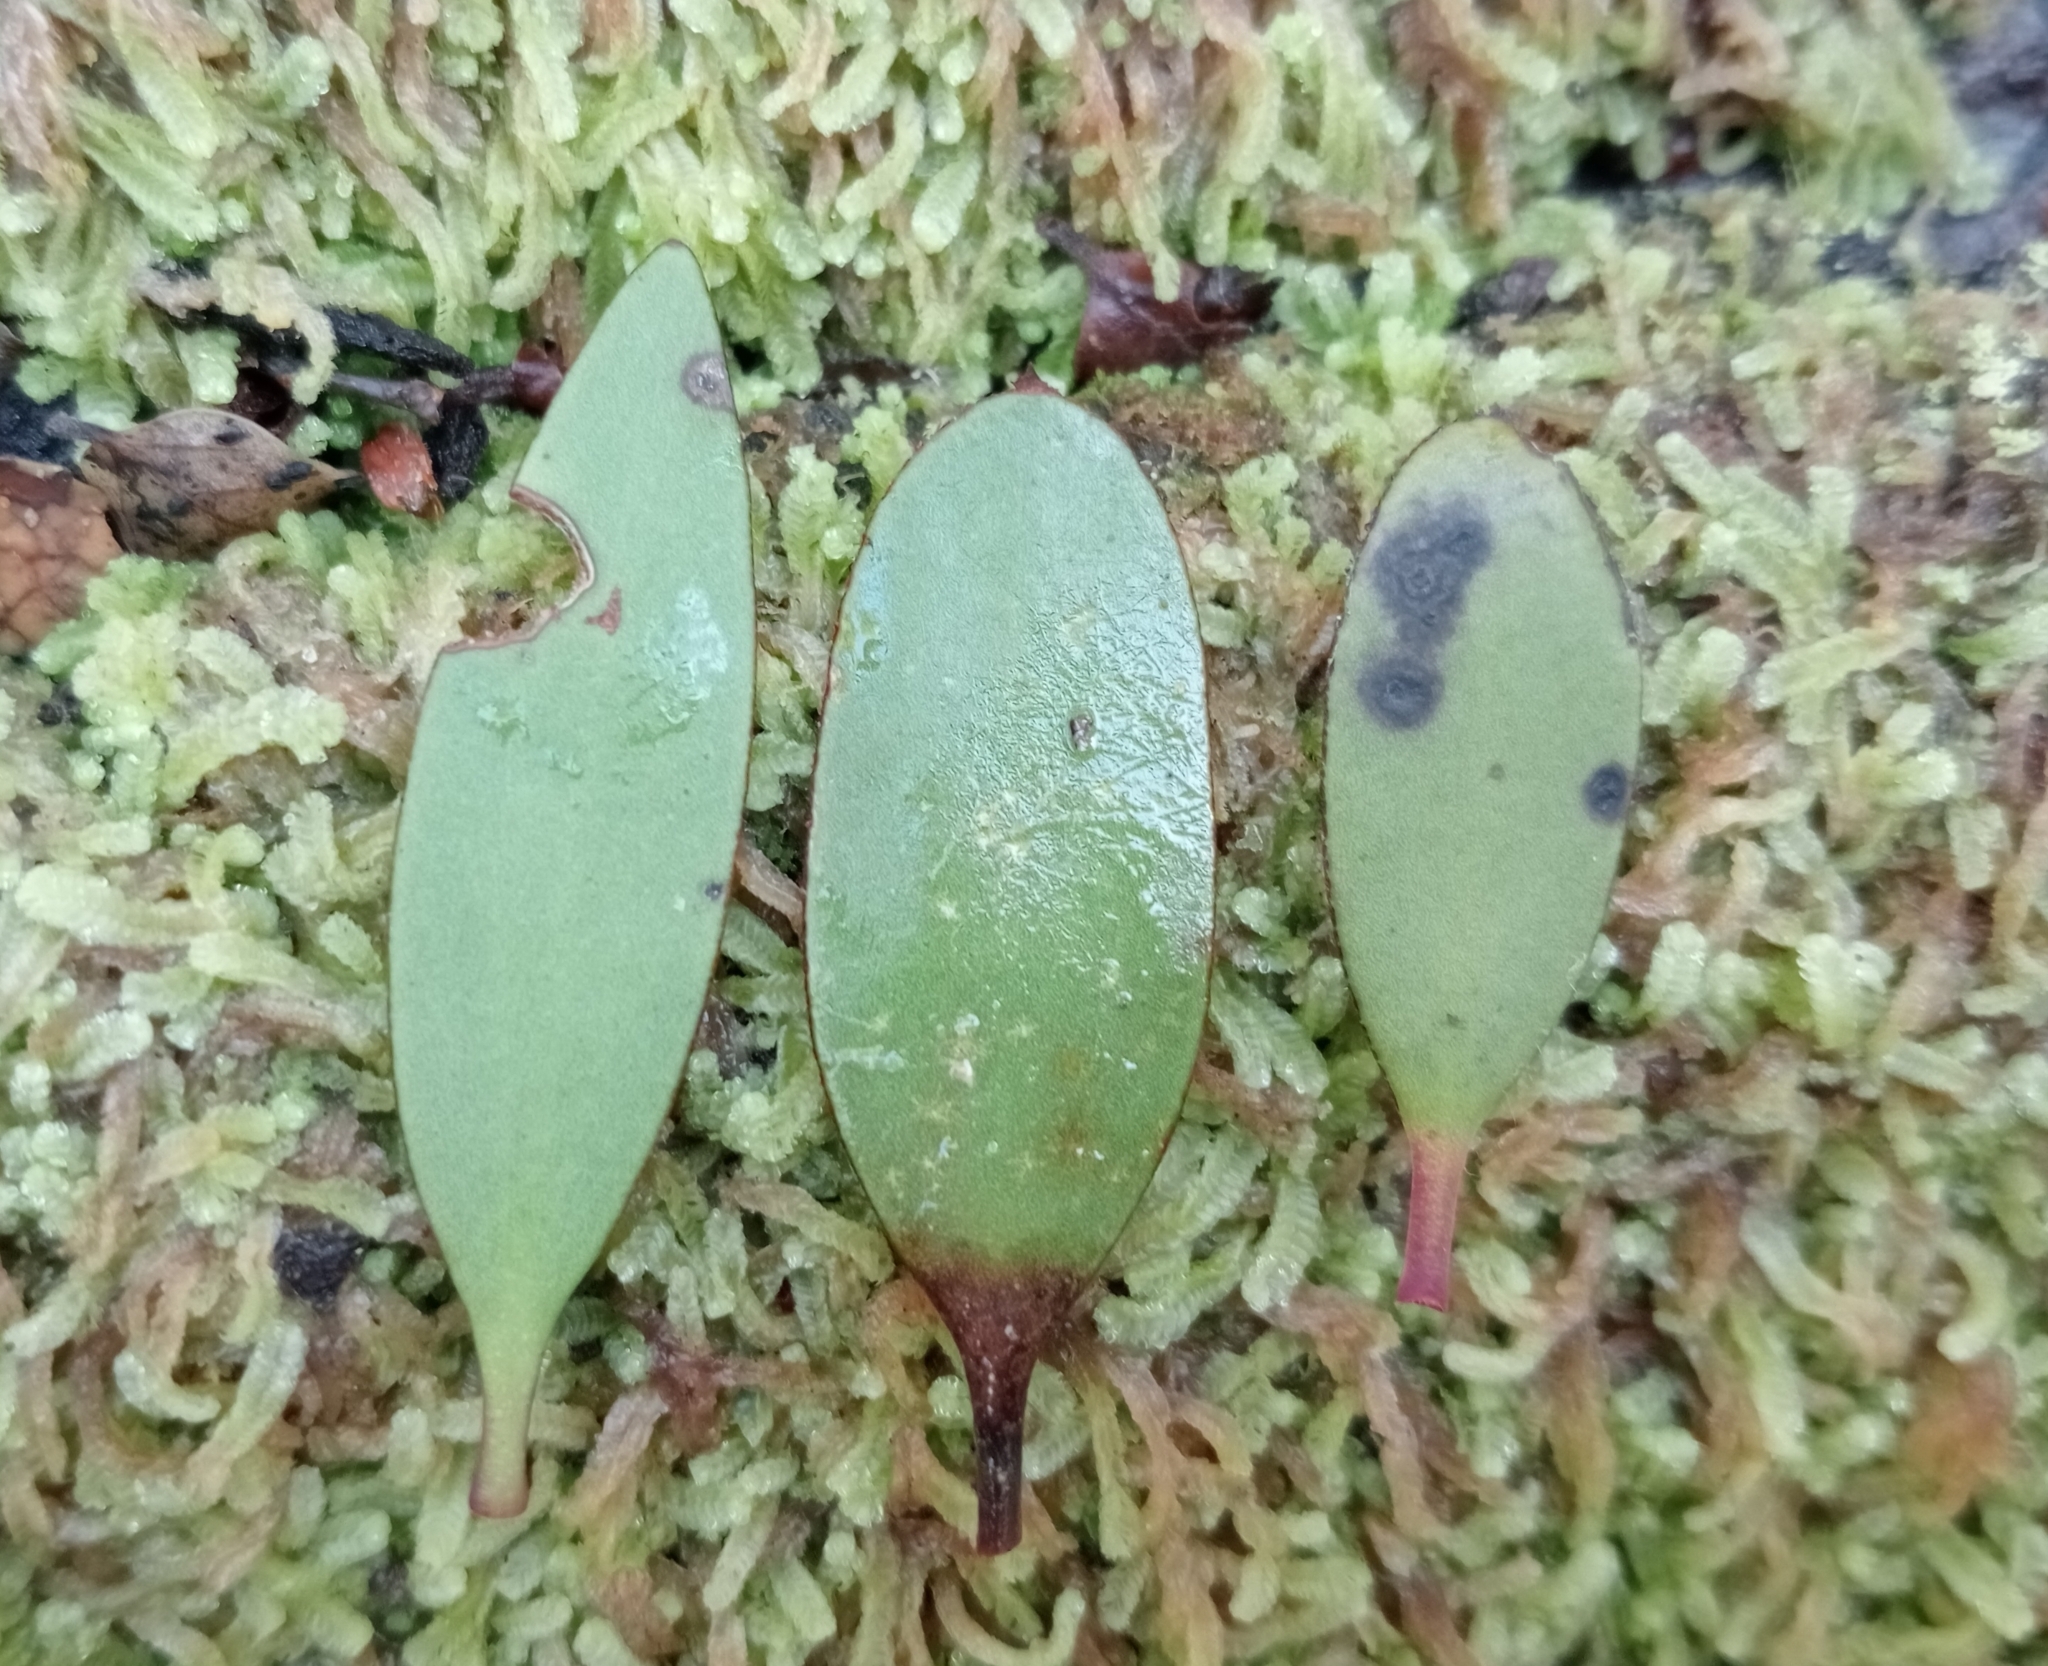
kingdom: Plantae
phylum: Tracheophyta
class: Magnoliopsida
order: Santalales
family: Loranthaceae
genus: Alepis
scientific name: Alepis flavida
